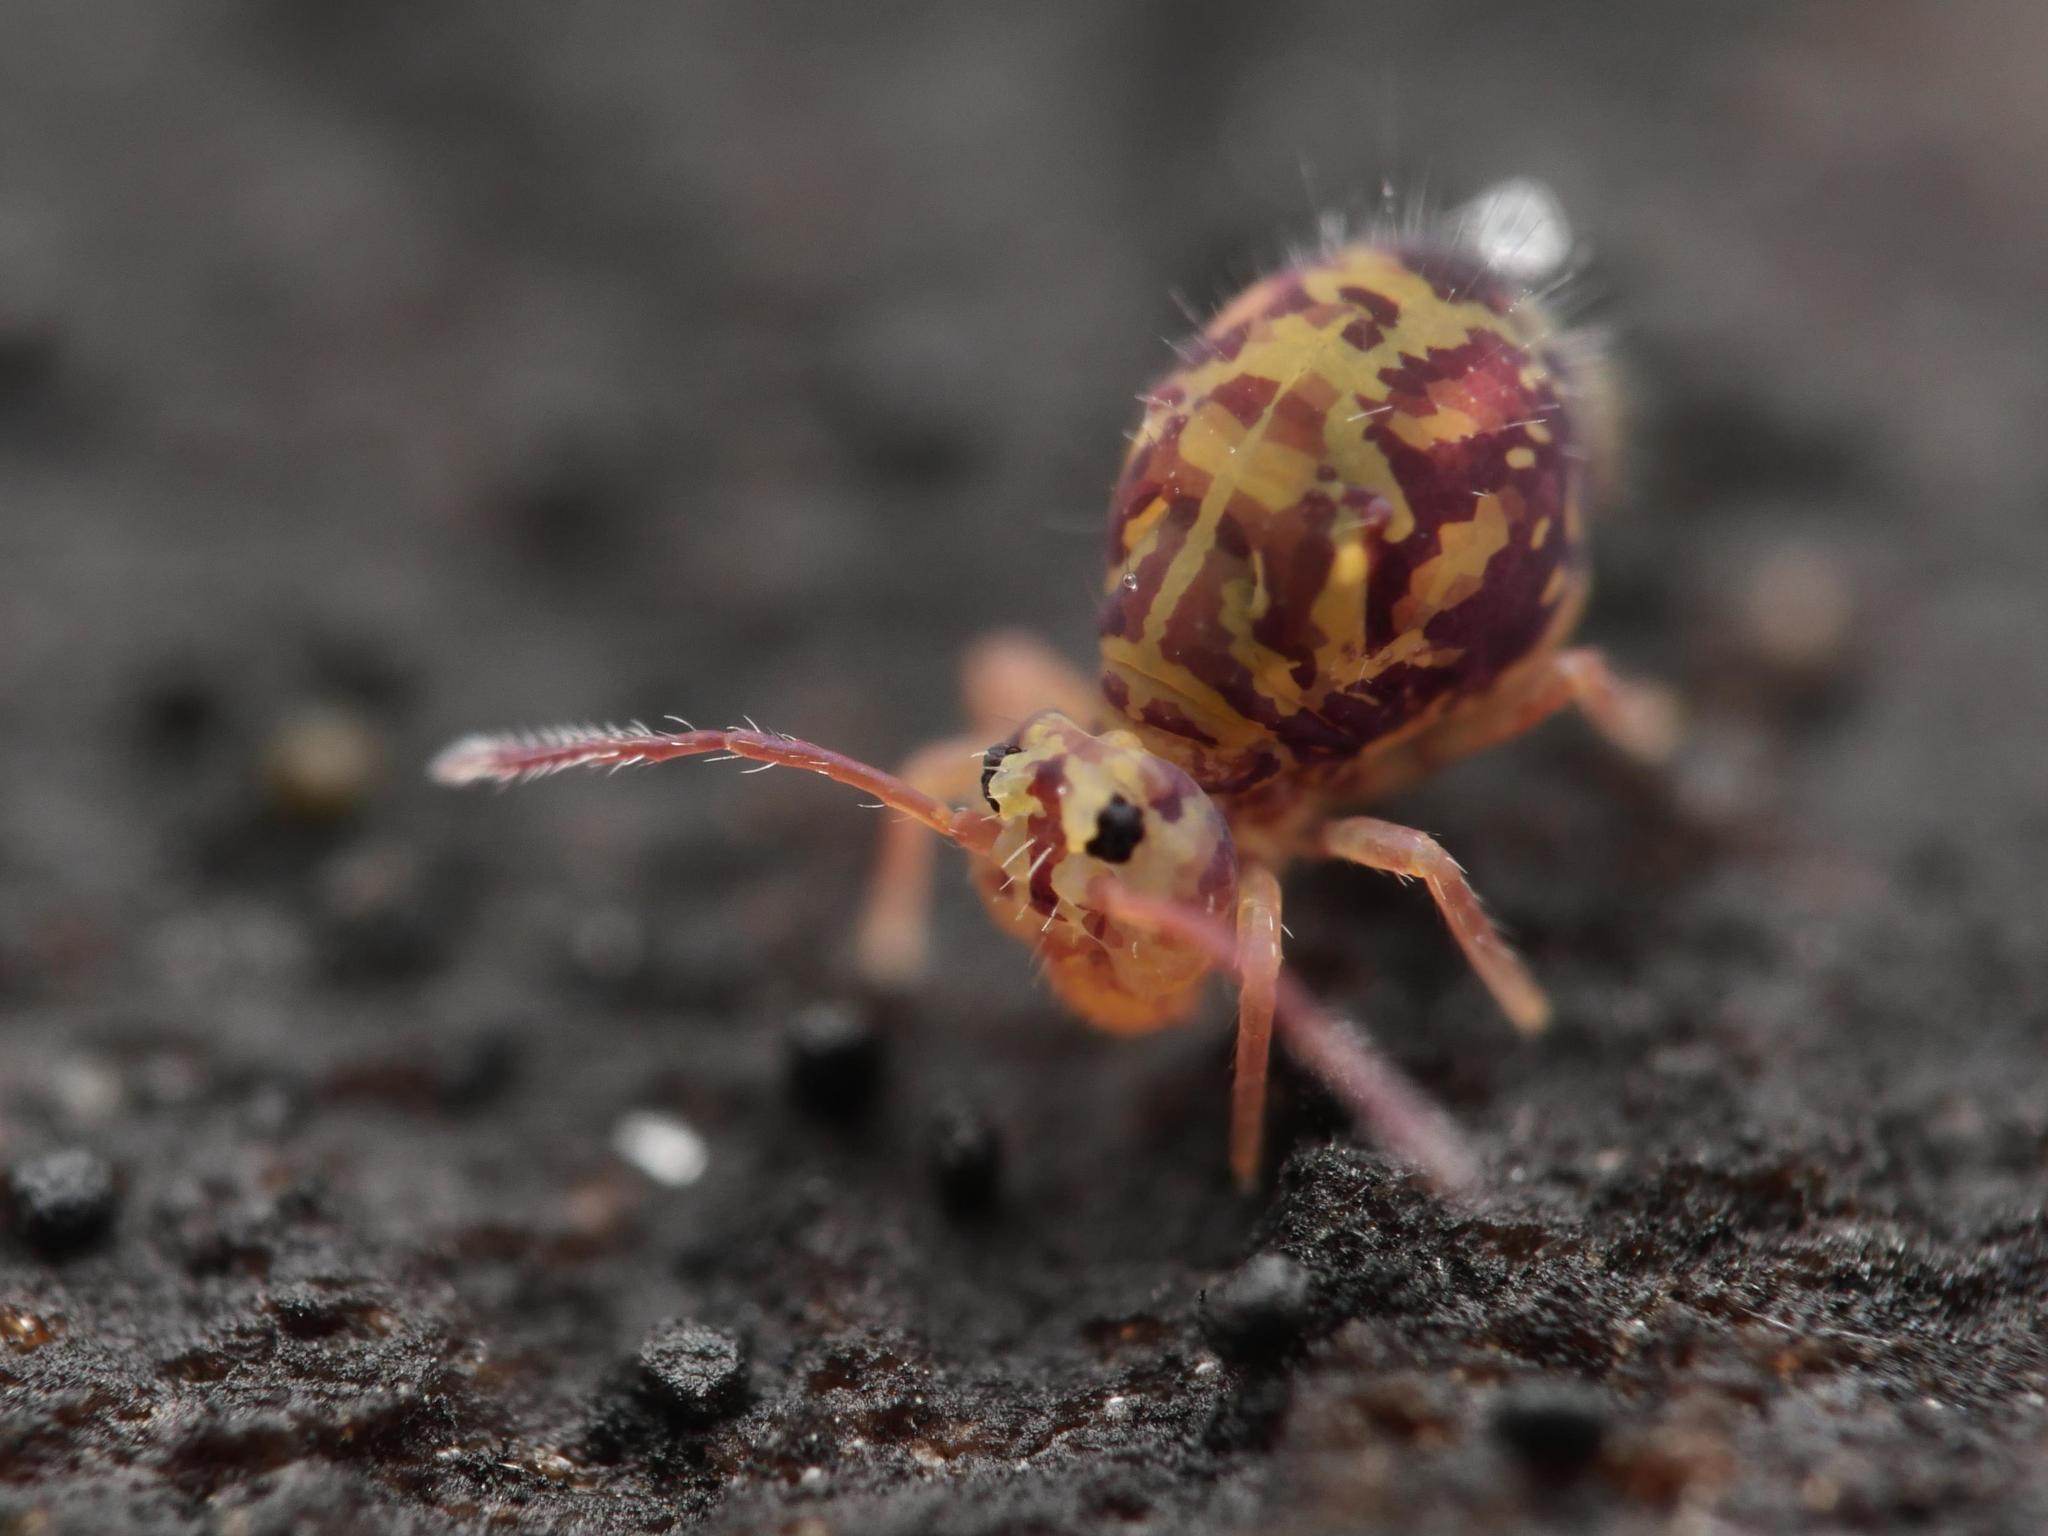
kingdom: Animalia
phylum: Arthropoda
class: Collembola
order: Symphypleona
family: Dicyrtomidae
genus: Dicyrtomina
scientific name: Dicyrtomina ornata
